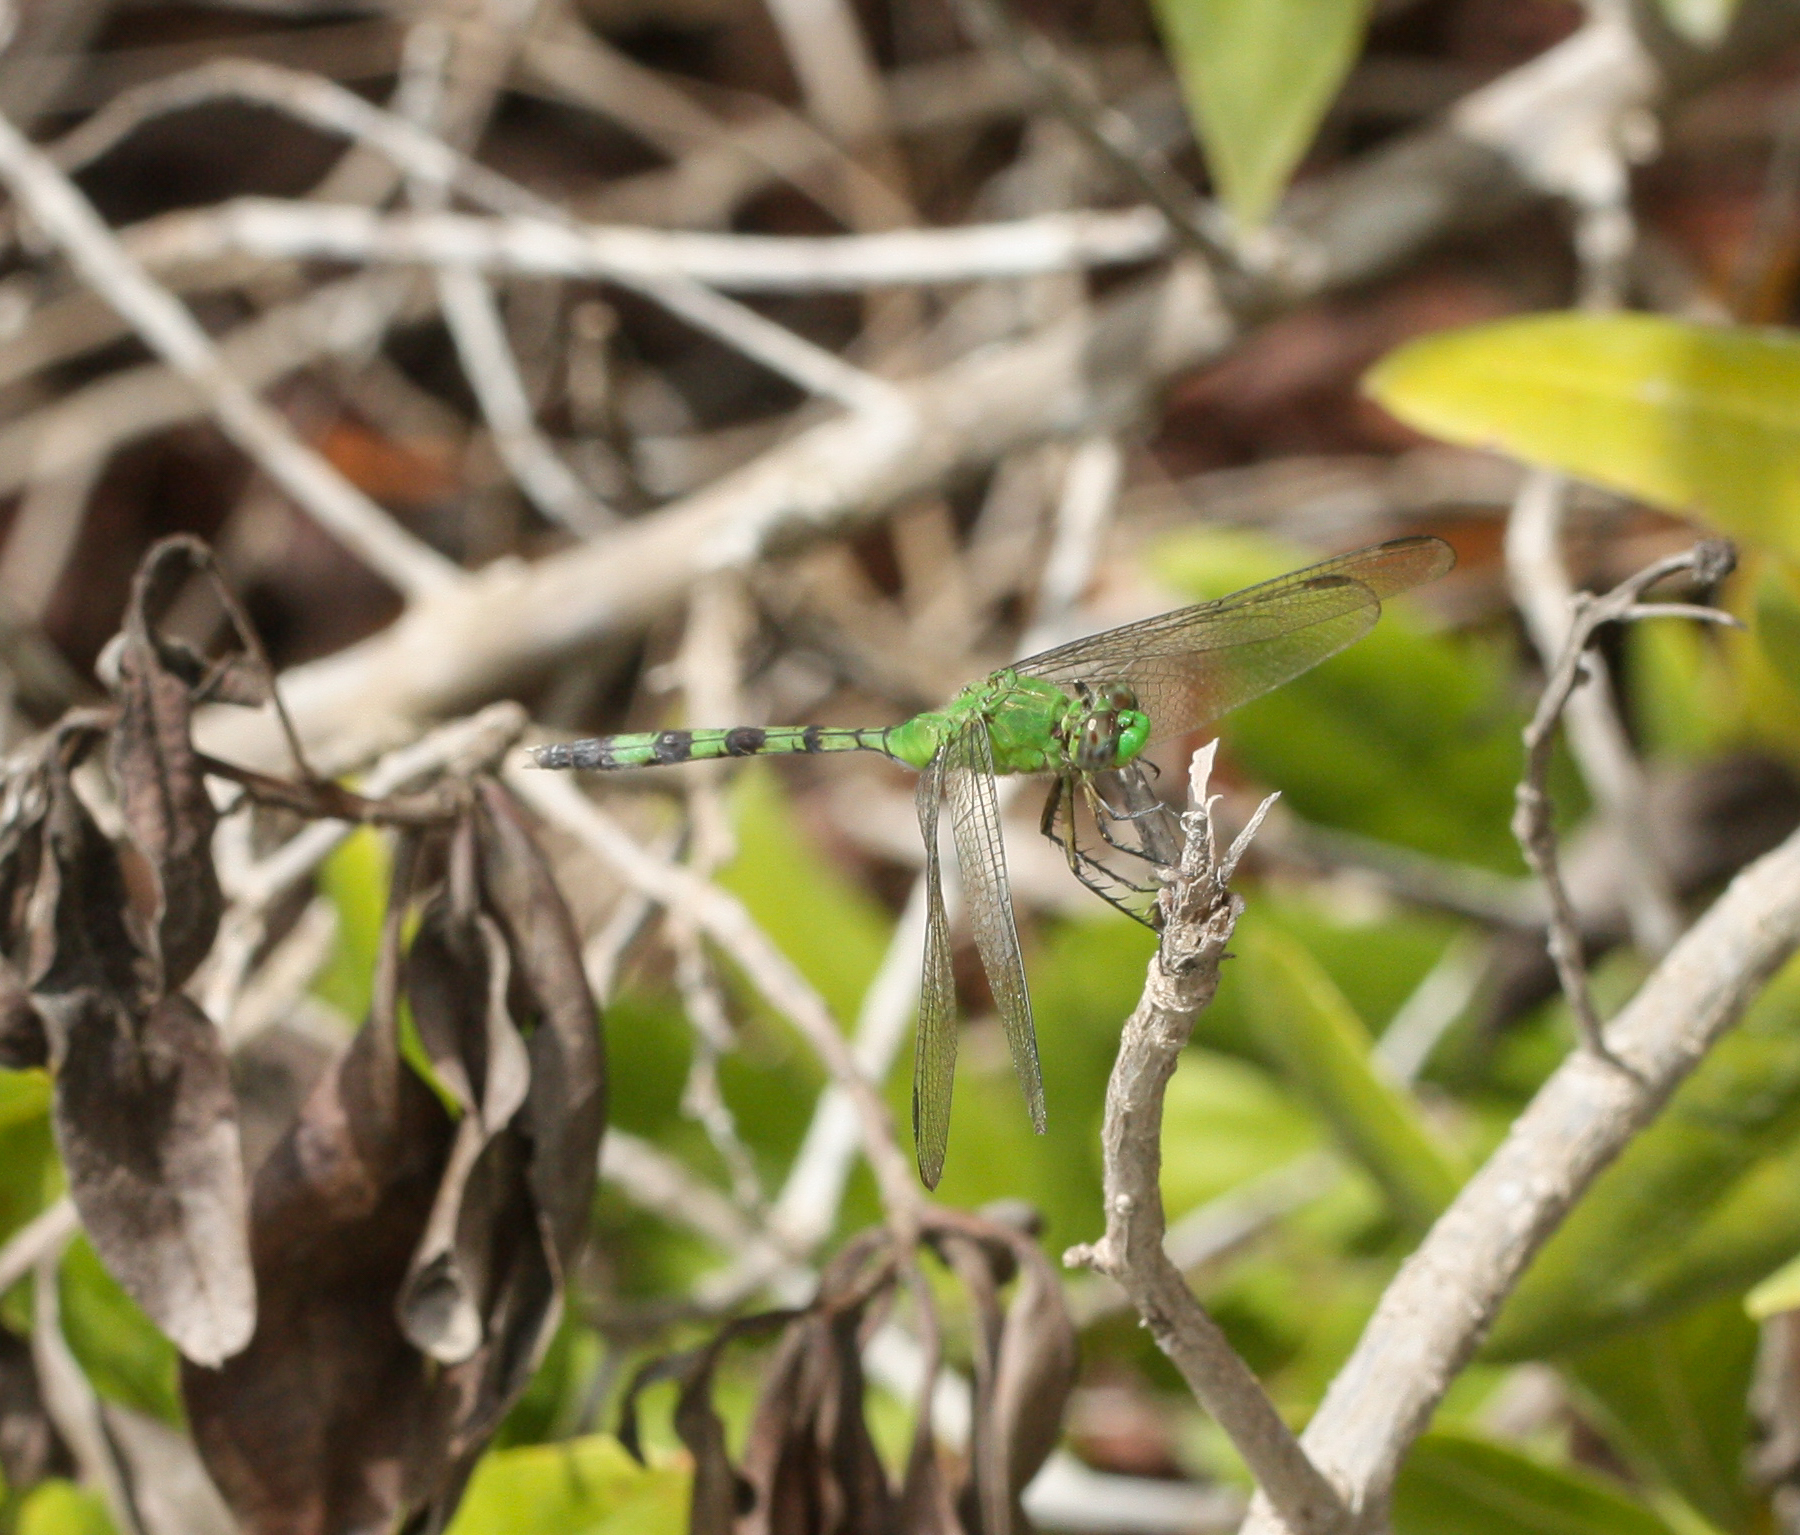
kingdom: Animalia
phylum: Arthropoda
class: Insecta
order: Odonata
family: Libellulidae
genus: Erythemis
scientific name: Erythemis vesiculosa
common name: Great pondhawk
